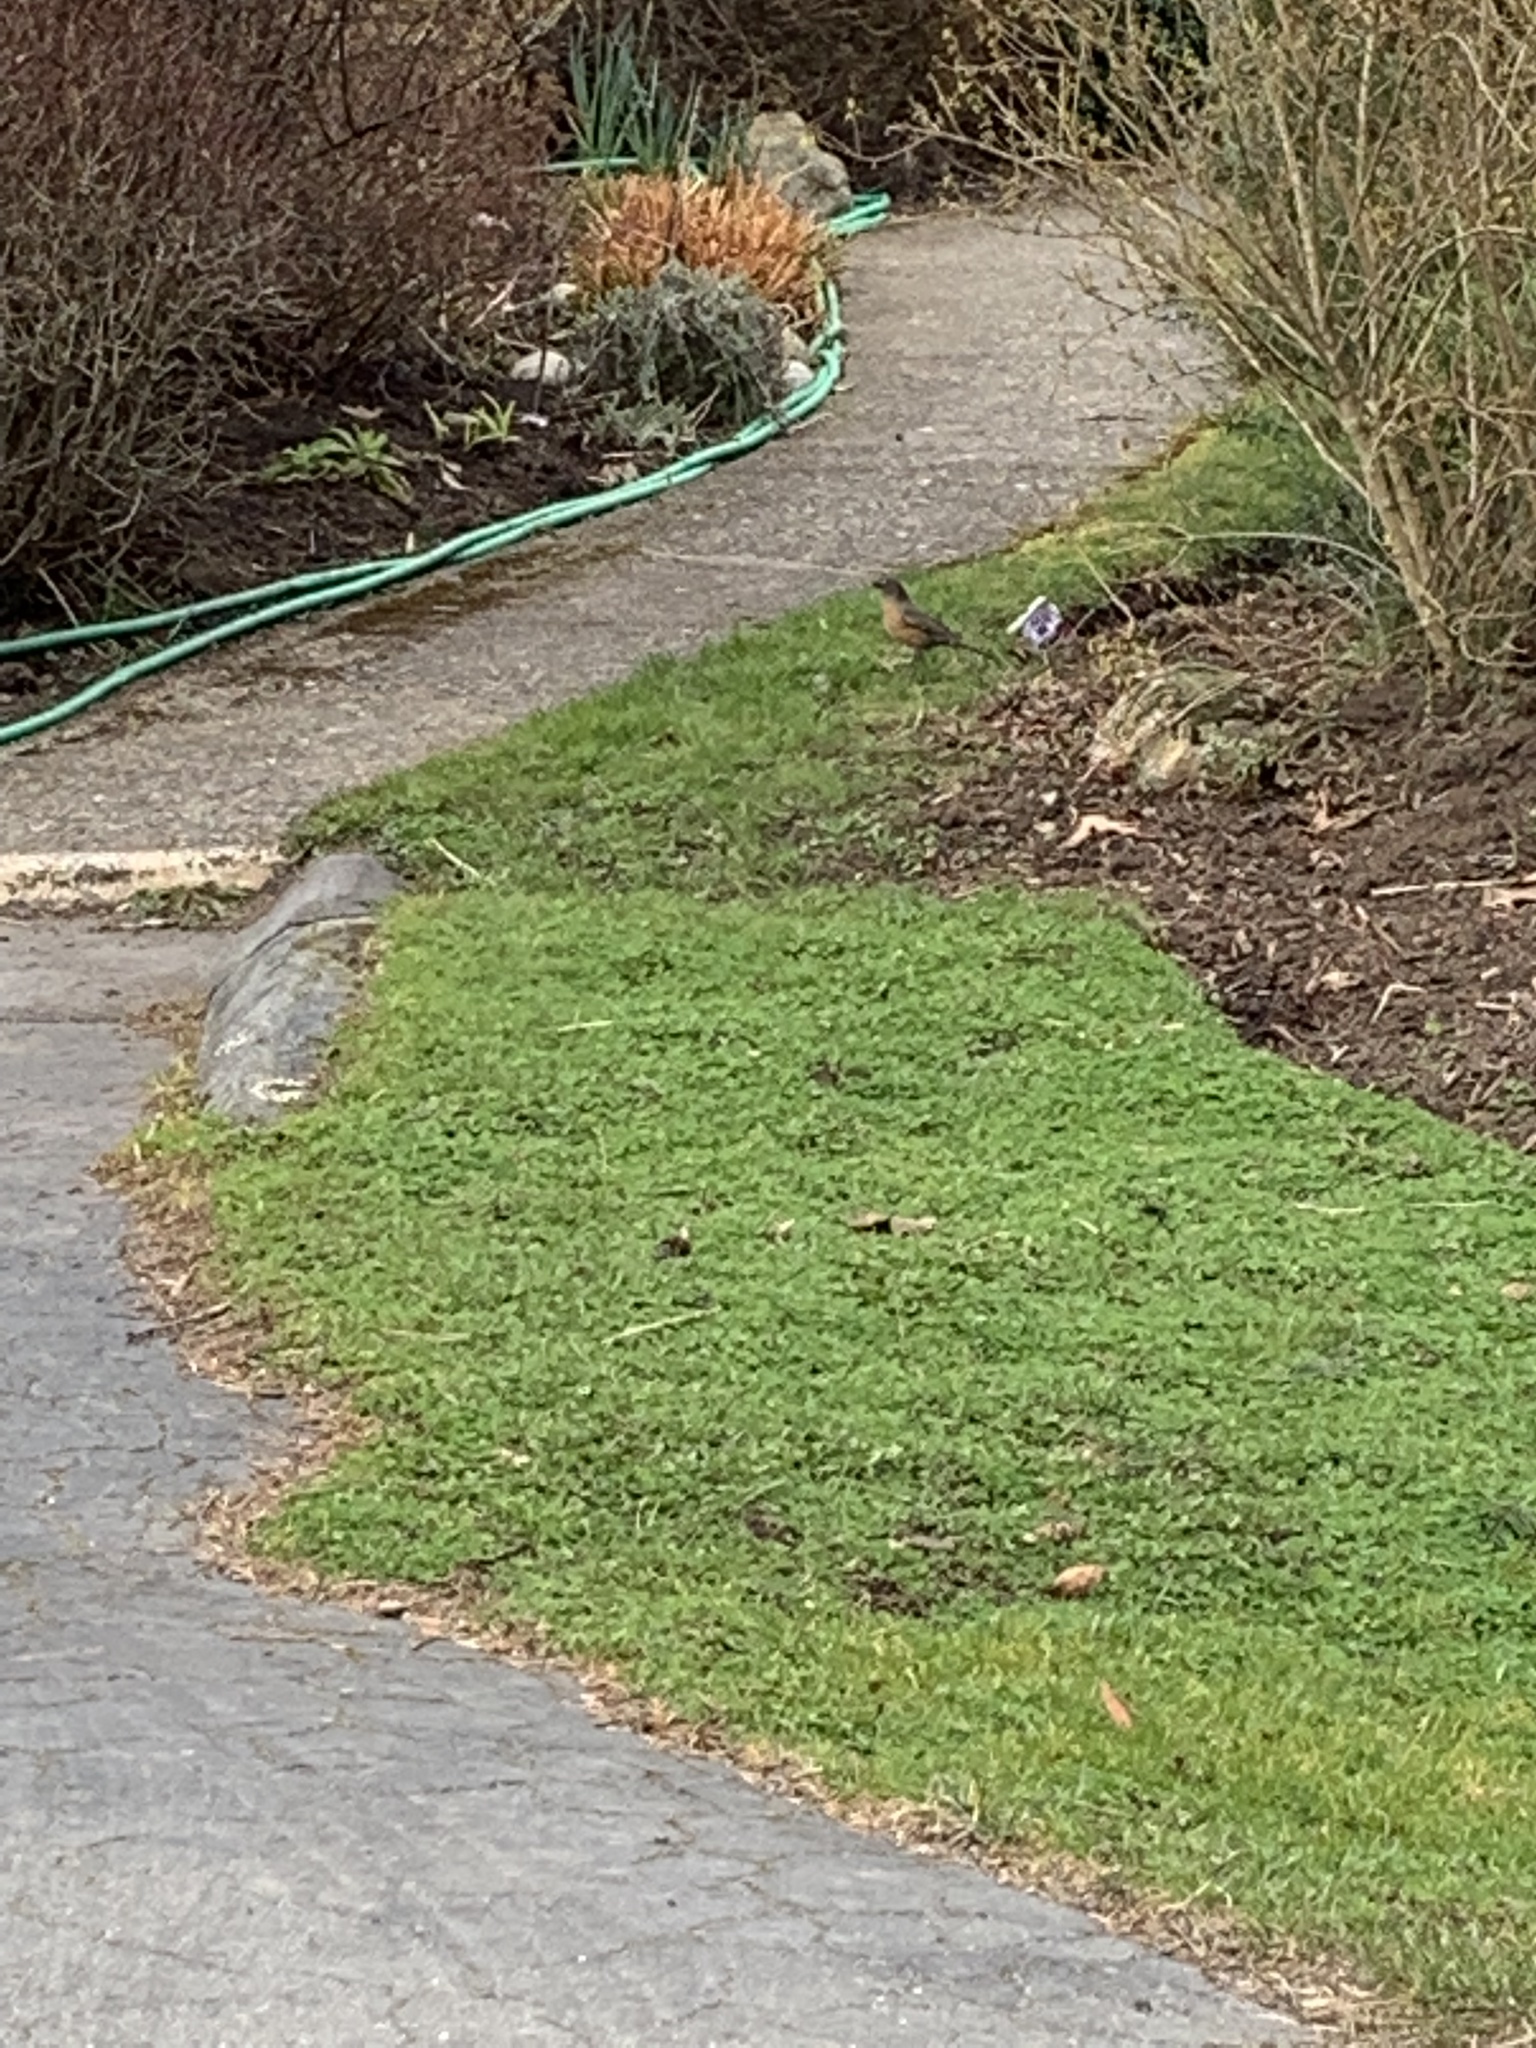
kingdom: Animalia
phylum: Chordata
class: Aves
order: Passeriformes
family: Turdidae
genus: Turdus
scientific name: Turdus migratorius
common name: American robin
